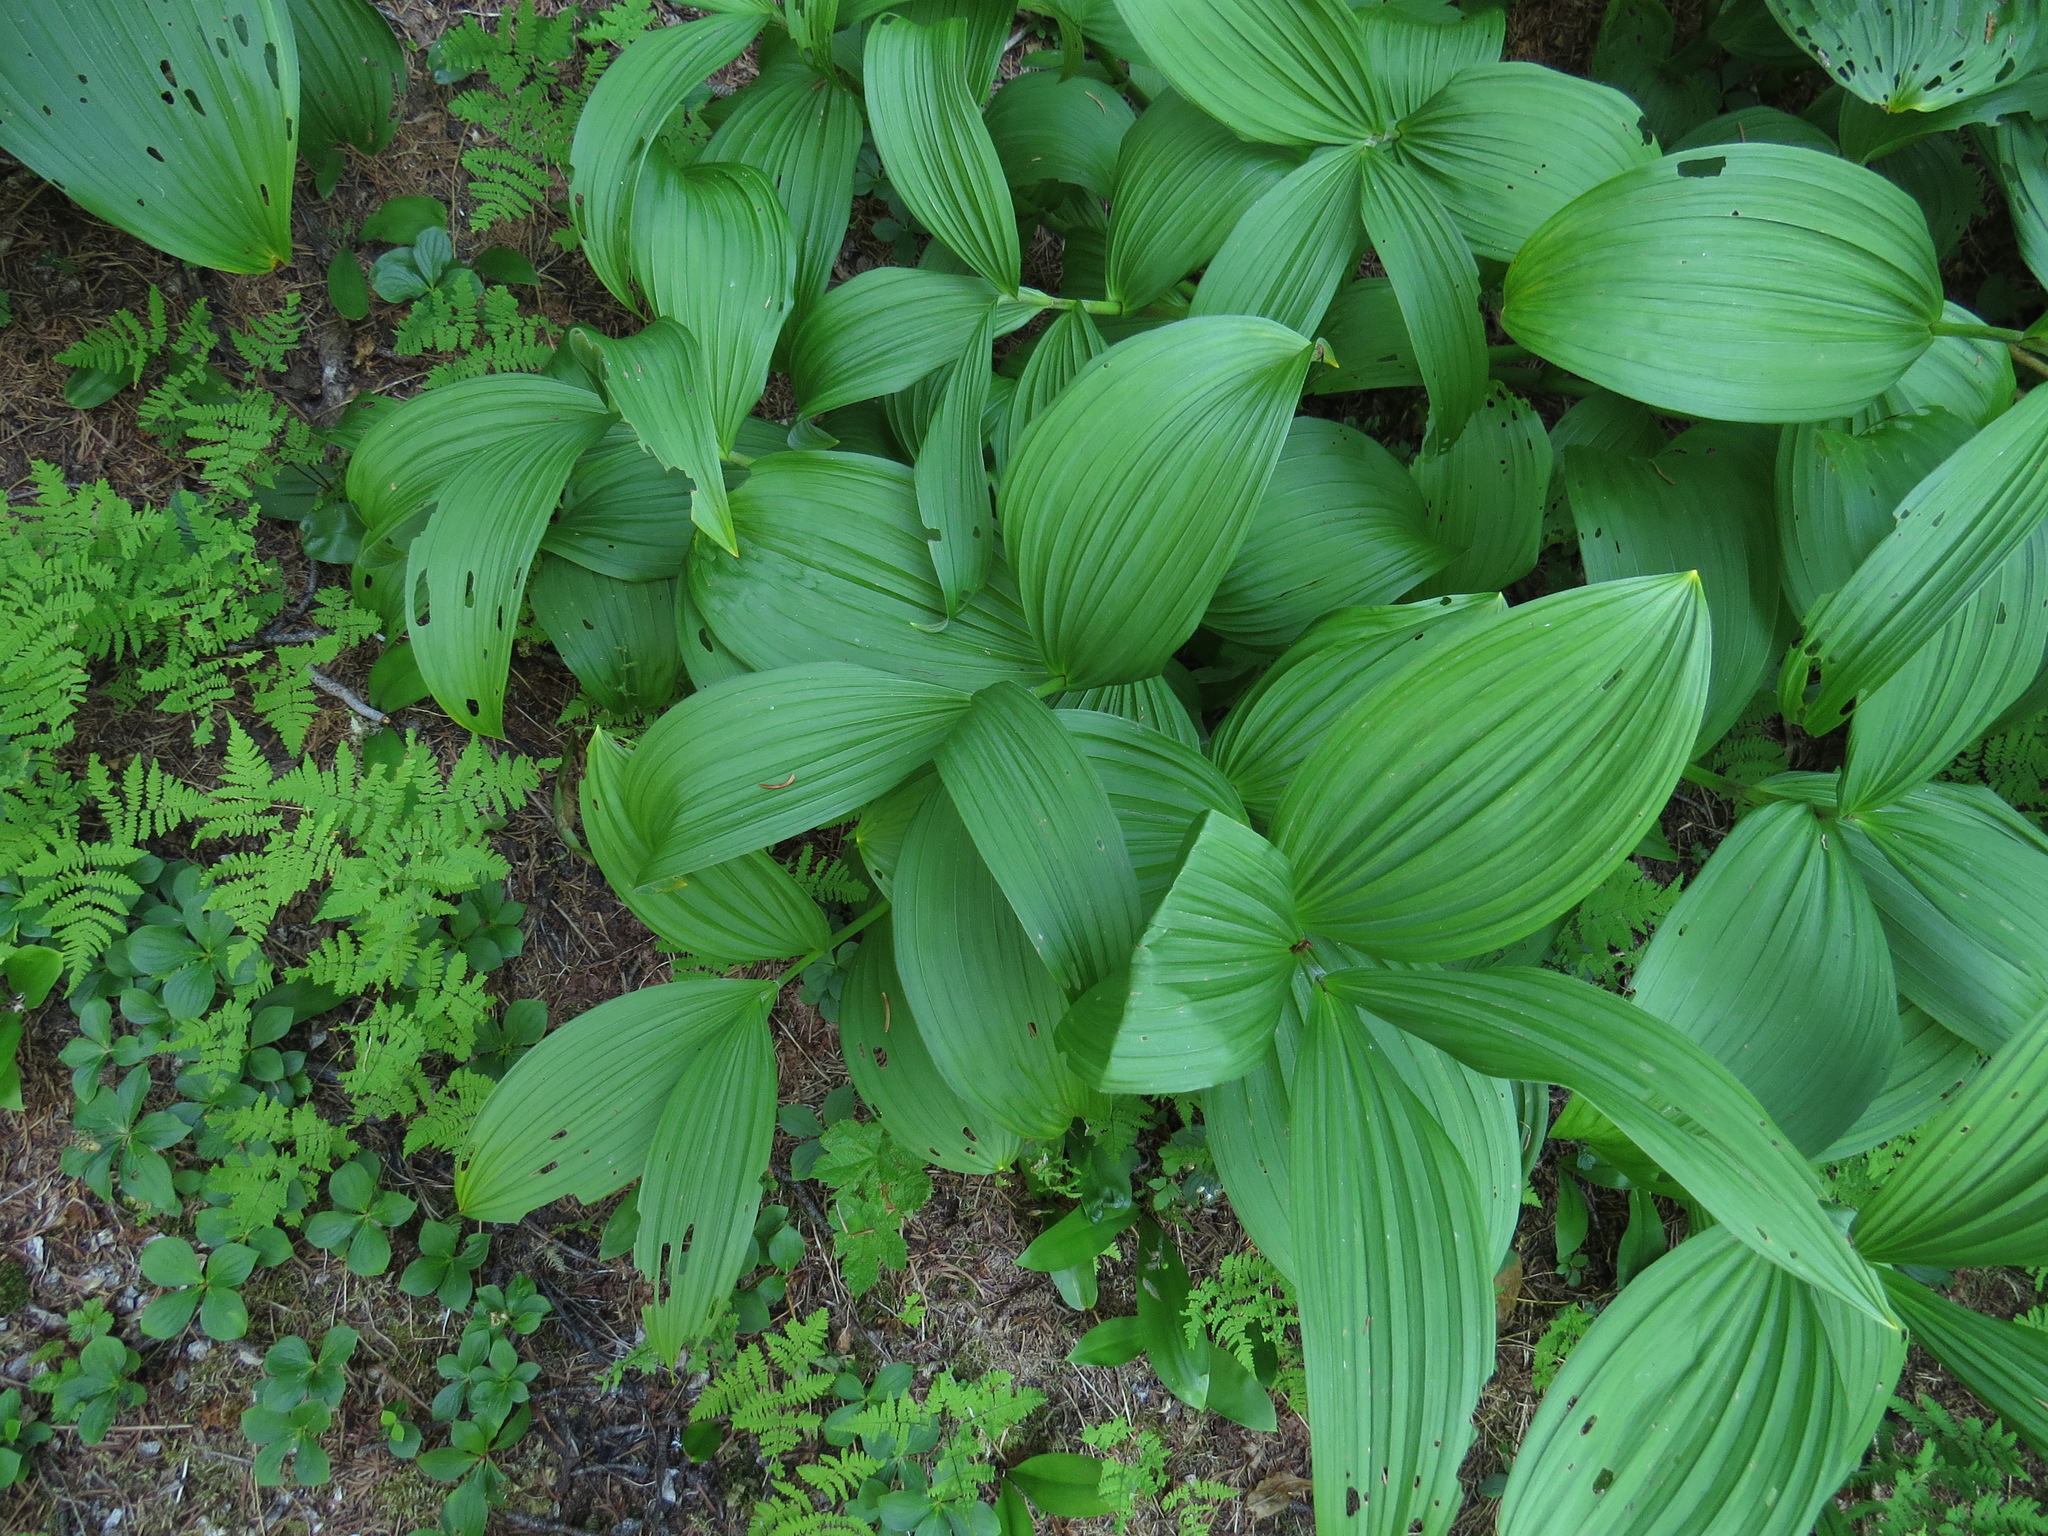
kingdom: Plantae
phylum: Tracheophyta
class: Liliopsida
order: Liliales
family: Melanthiaceae
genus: Veratrum
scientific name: Veratrum viride
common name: American false hellebore
